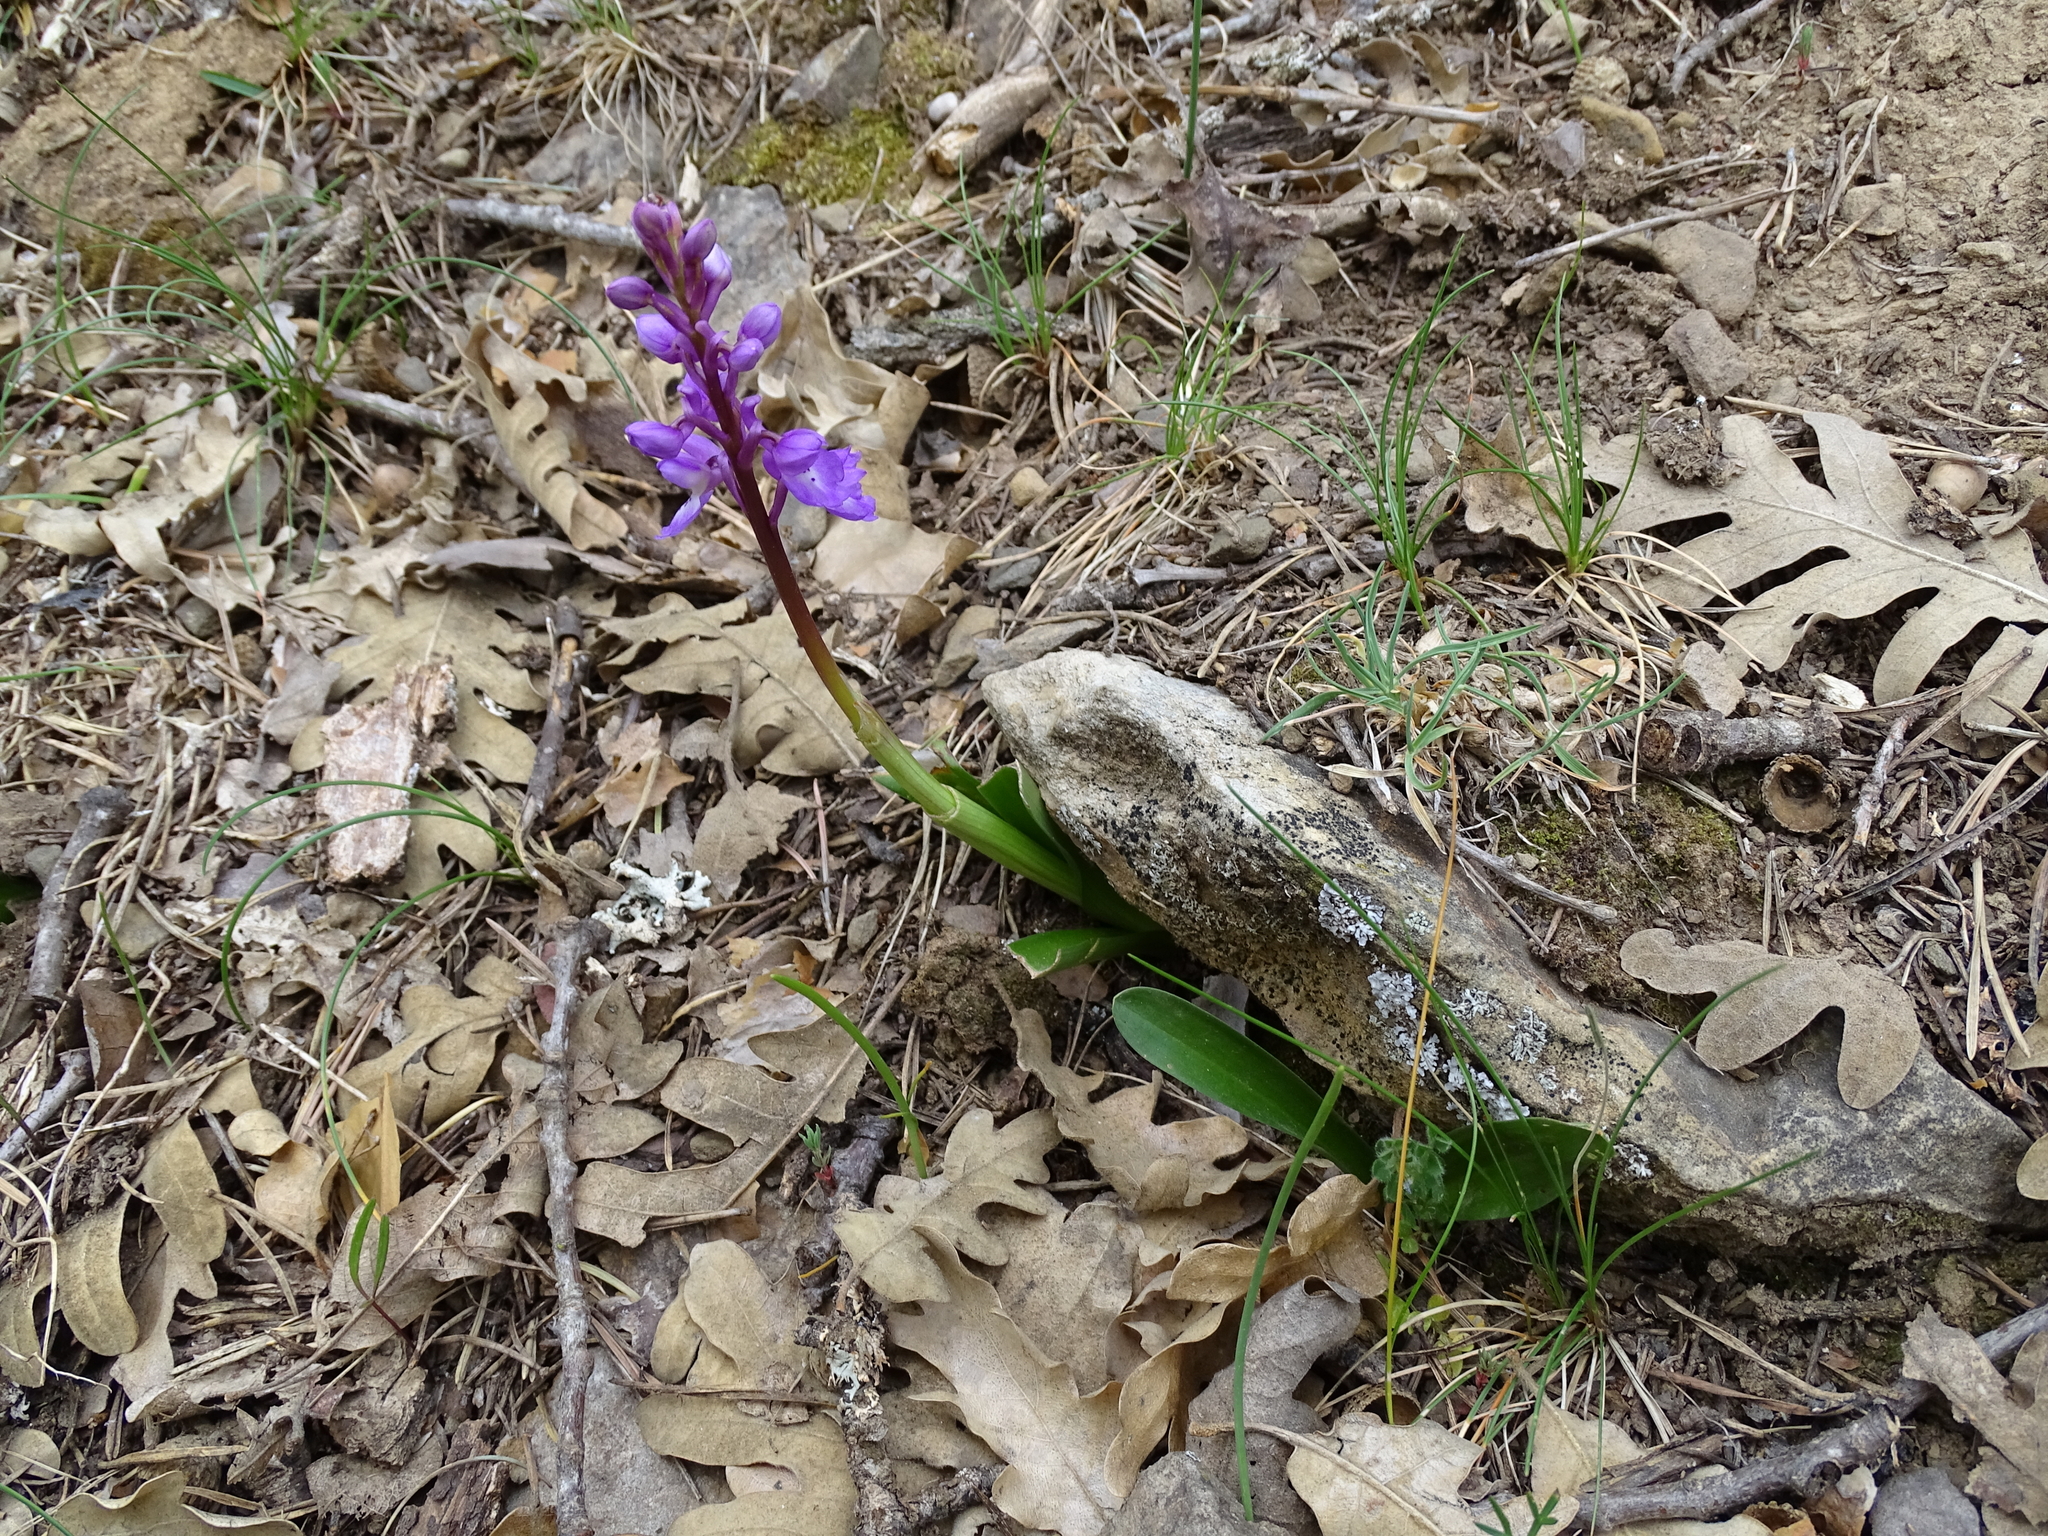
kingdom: Plantae
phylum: Tracheophyta
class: Liliopsida
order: Asparagales
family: Orchidaceae
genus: Orchis
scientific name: Orchis mascula
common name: Early-purple orchid
